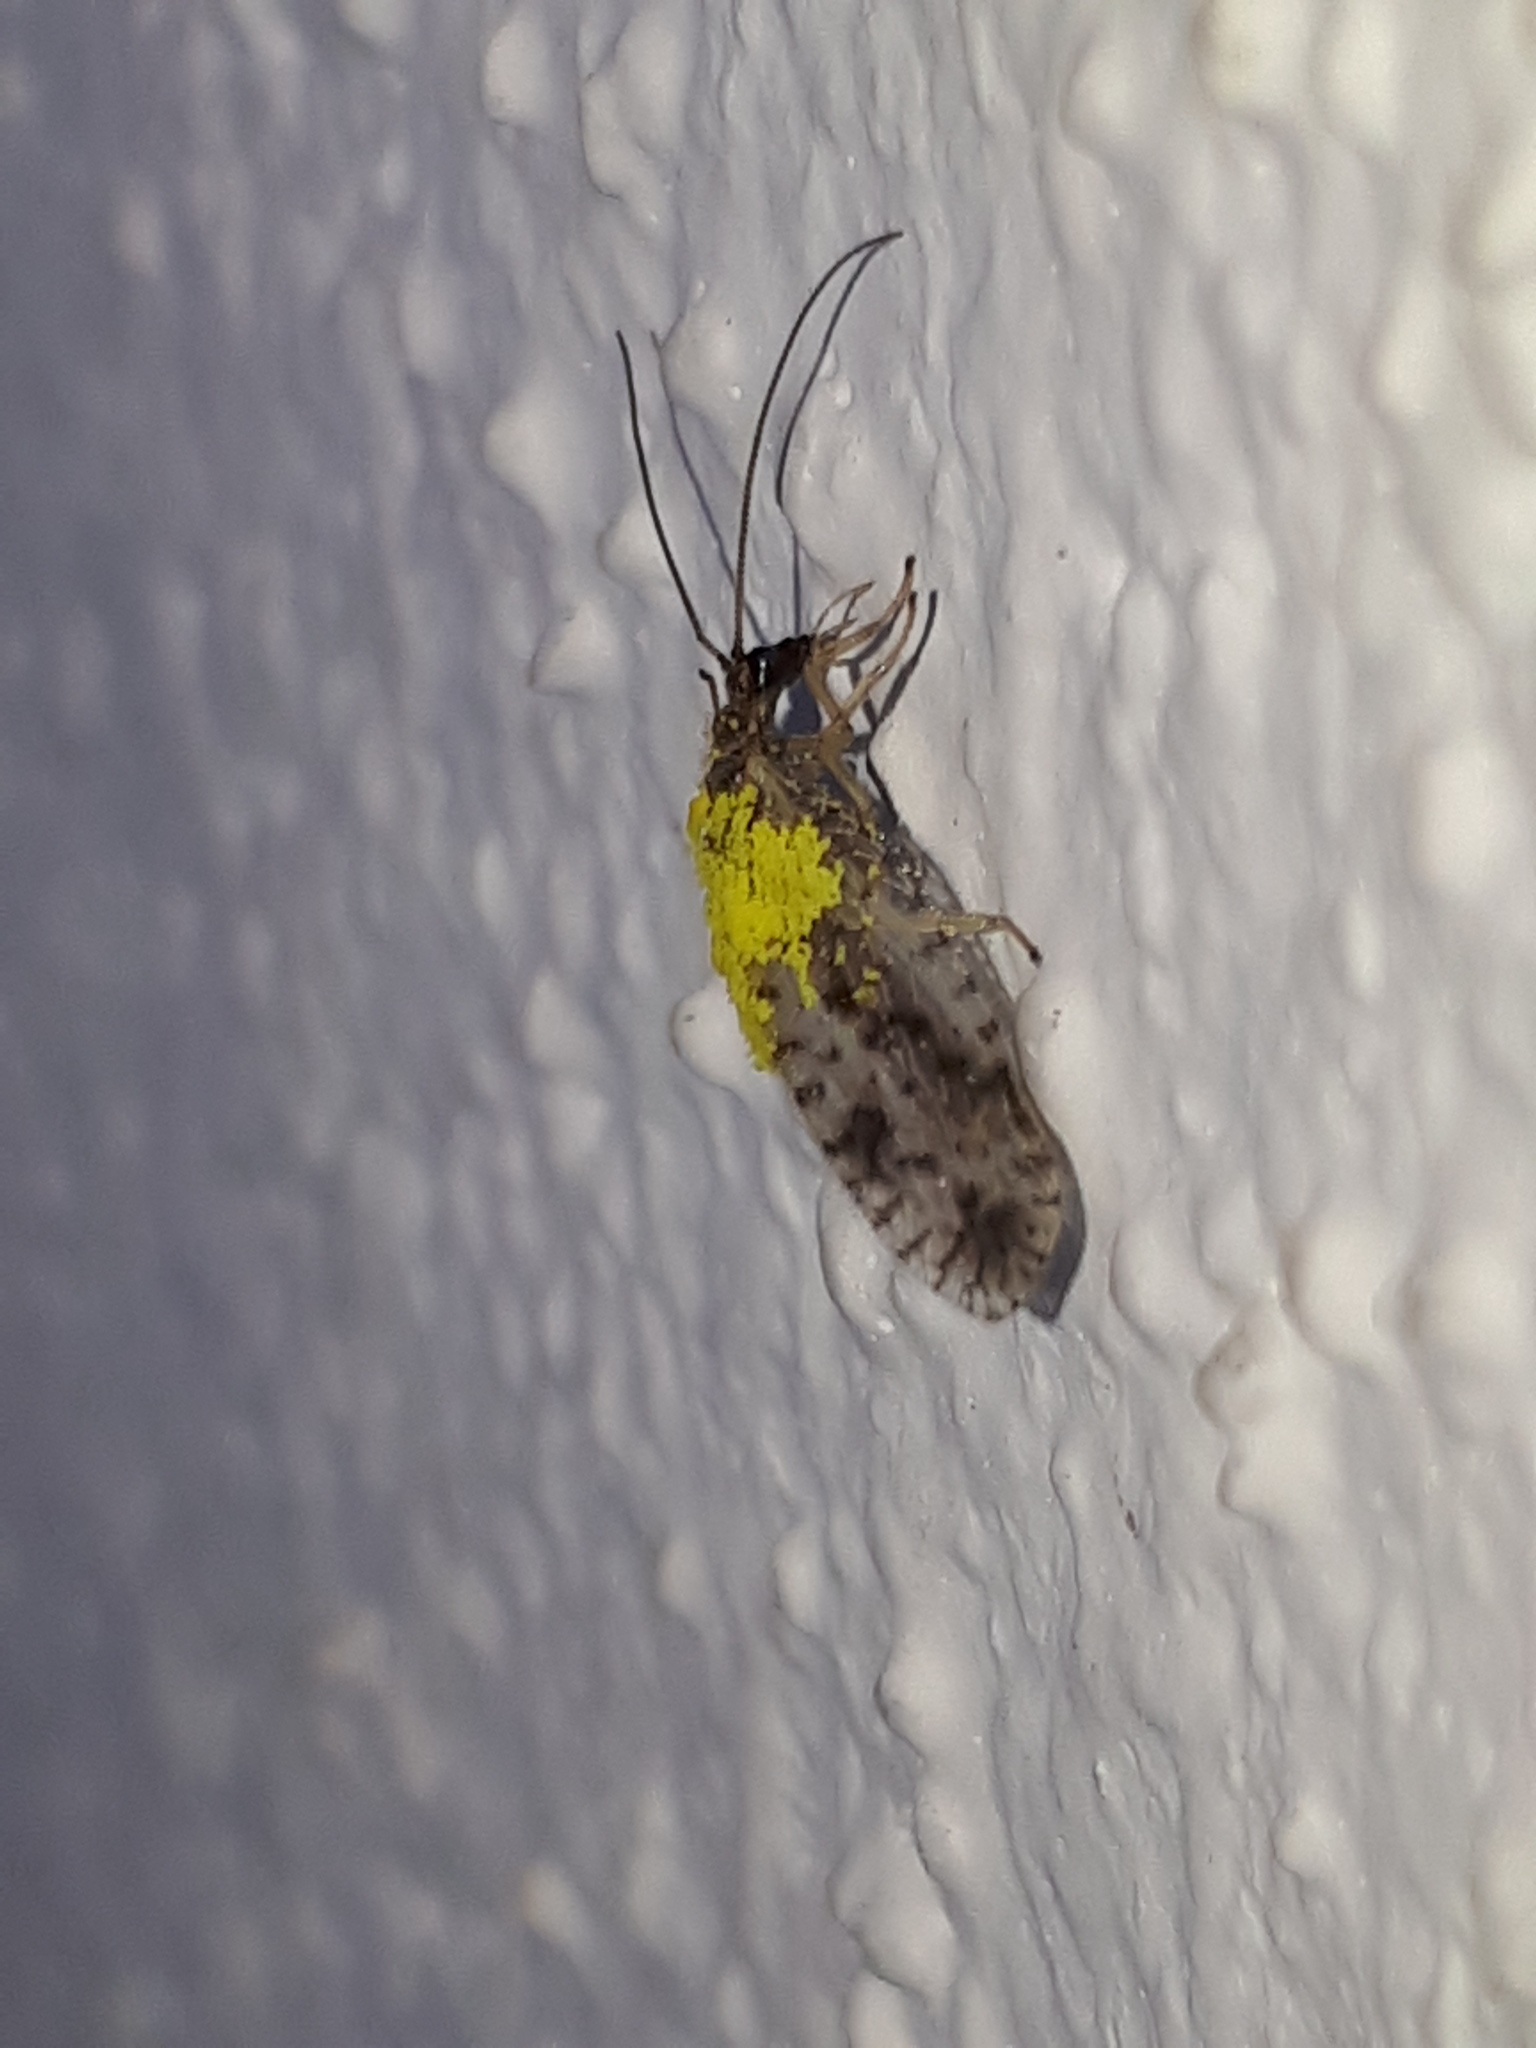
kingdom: Animalia
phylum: Arthropoda
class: Insecta
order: Neuroptera
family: Hemerobiidae
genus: Micromus
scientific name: Micromus variegatus
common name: Brown lacewing
